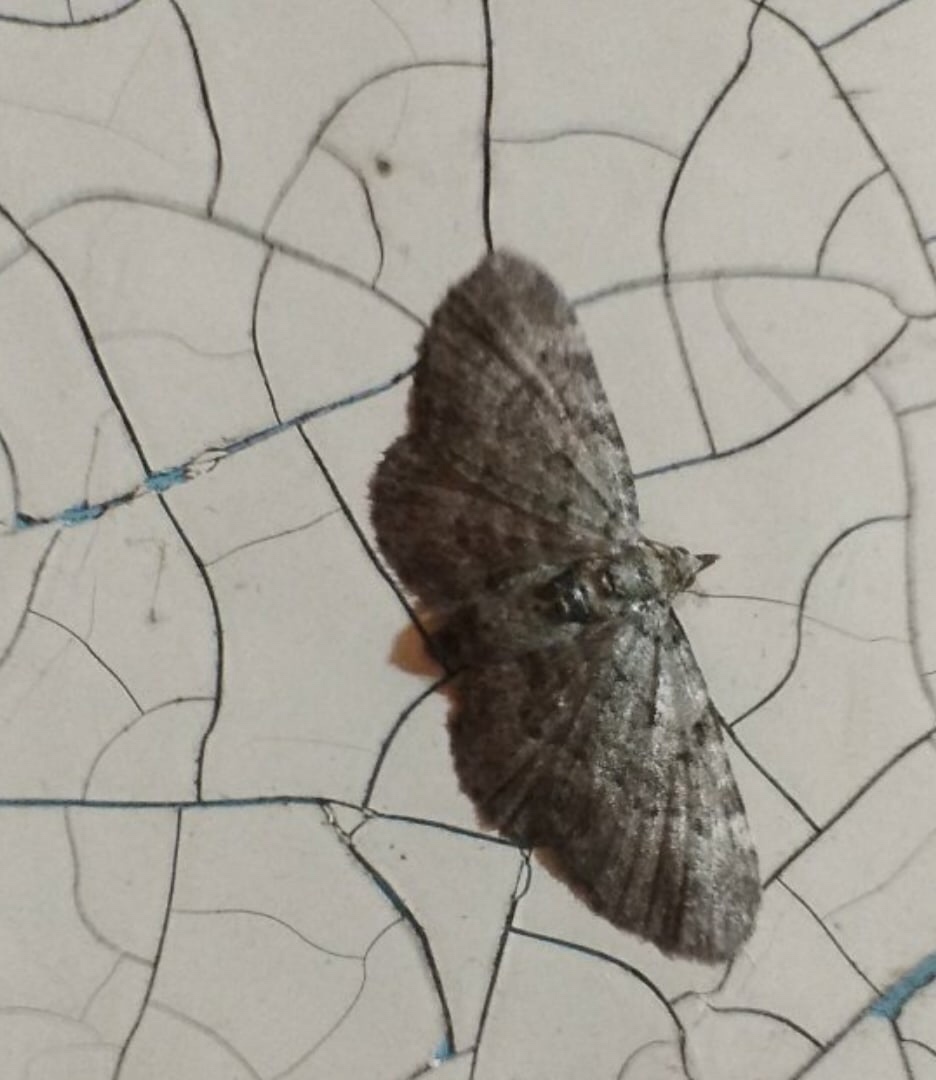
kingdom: Animalia
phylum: Arthropoda
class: Insecta
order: Lepidoptera
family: Geometridae
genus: Pasiphila
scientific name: Pasiphila rectangulata
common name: Green pug
